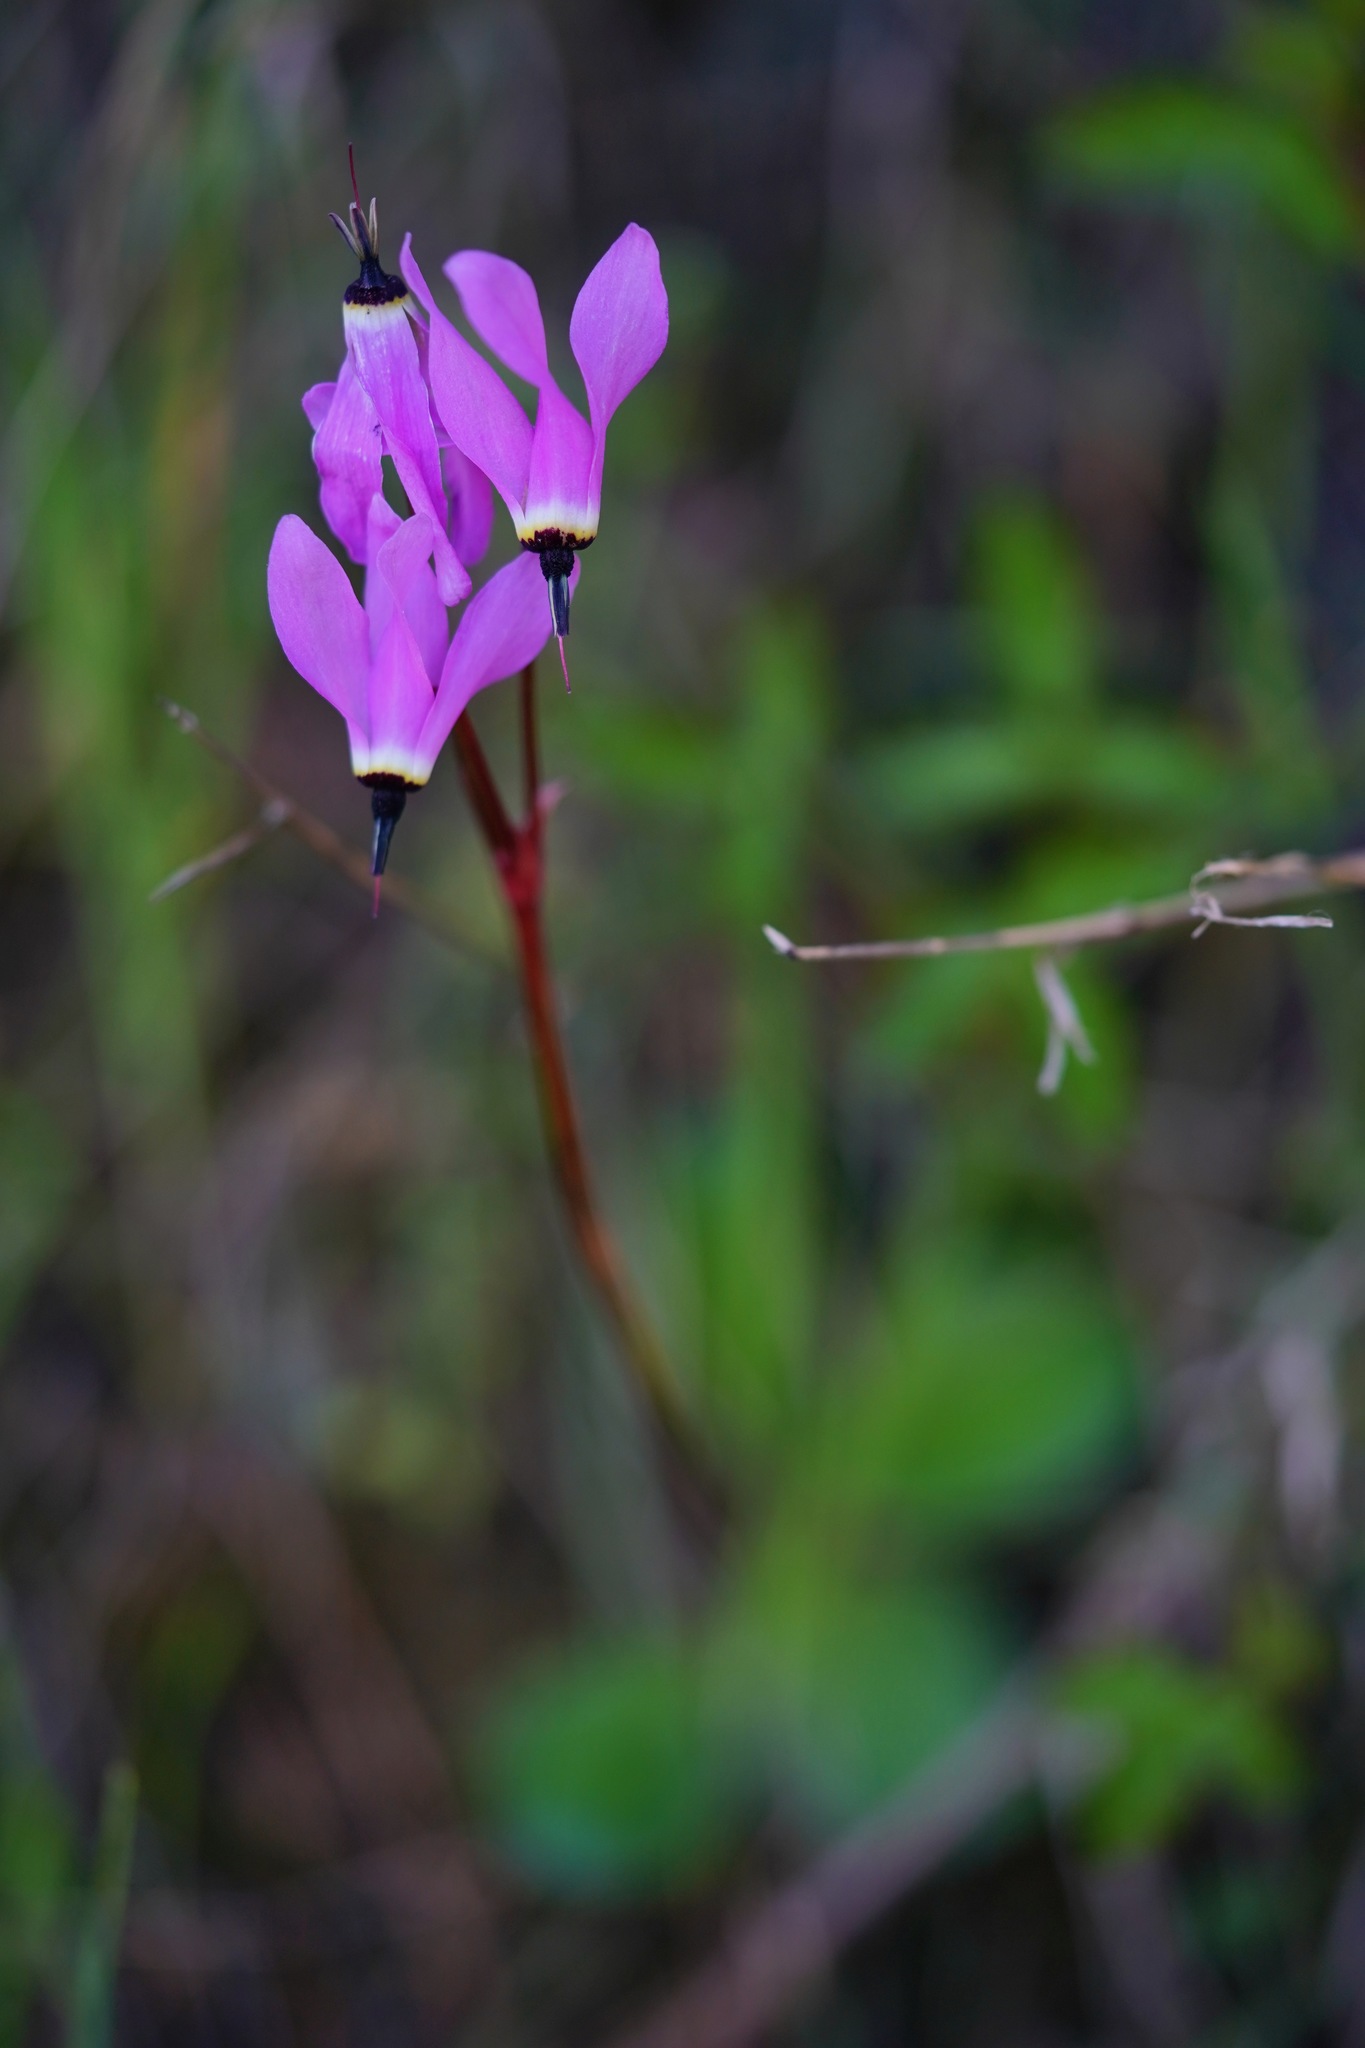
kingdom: Plantae
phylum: Tracheophyta
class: Magnoliopsida
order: Ericales
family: Primulaceae
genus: Dodecatheon
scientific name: Dodecatheon hendersonii
